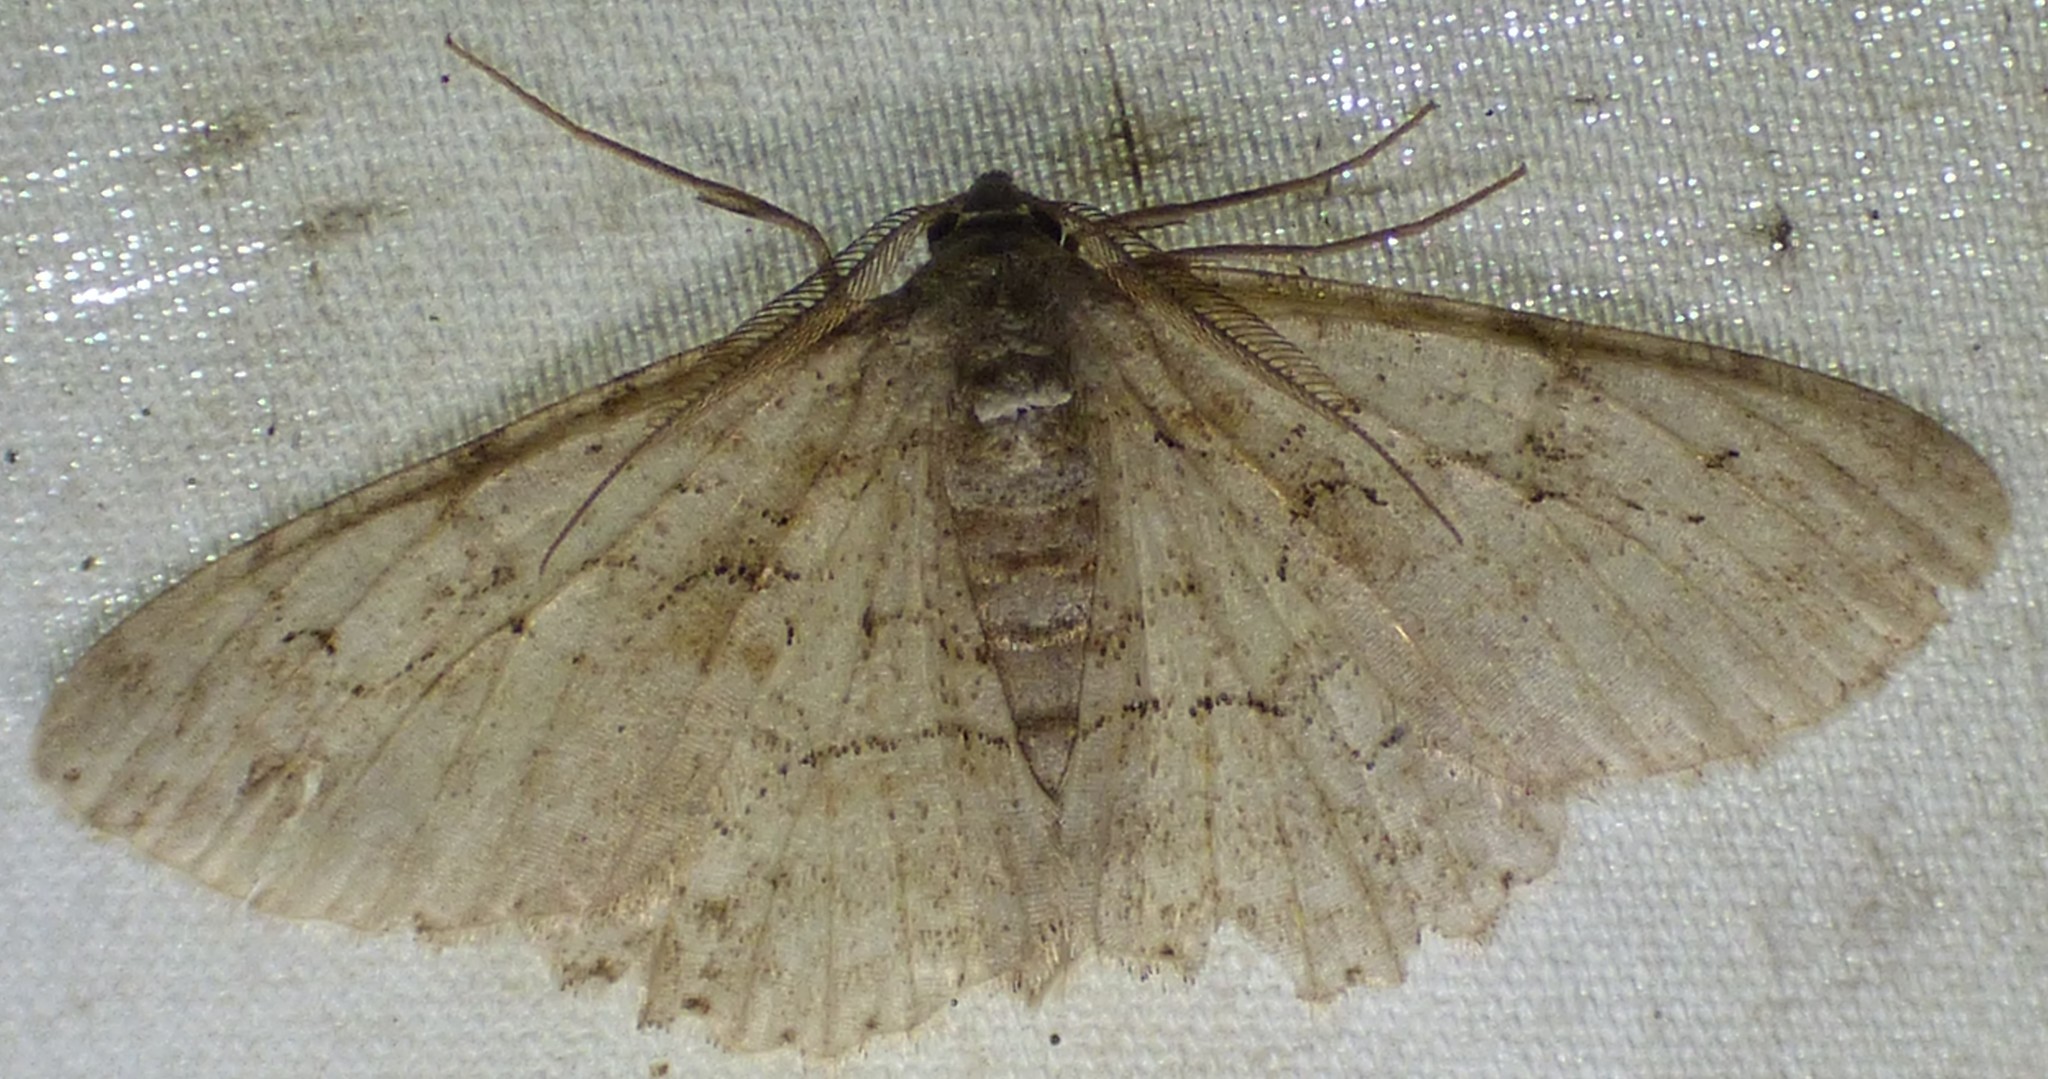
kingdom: Animalia
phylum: Arthropoda
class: Insecta
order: Lepidoptera
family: Geometridae
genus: Iridopsis
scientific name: Iridopsis defectaria
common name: Brown-shaded gray
